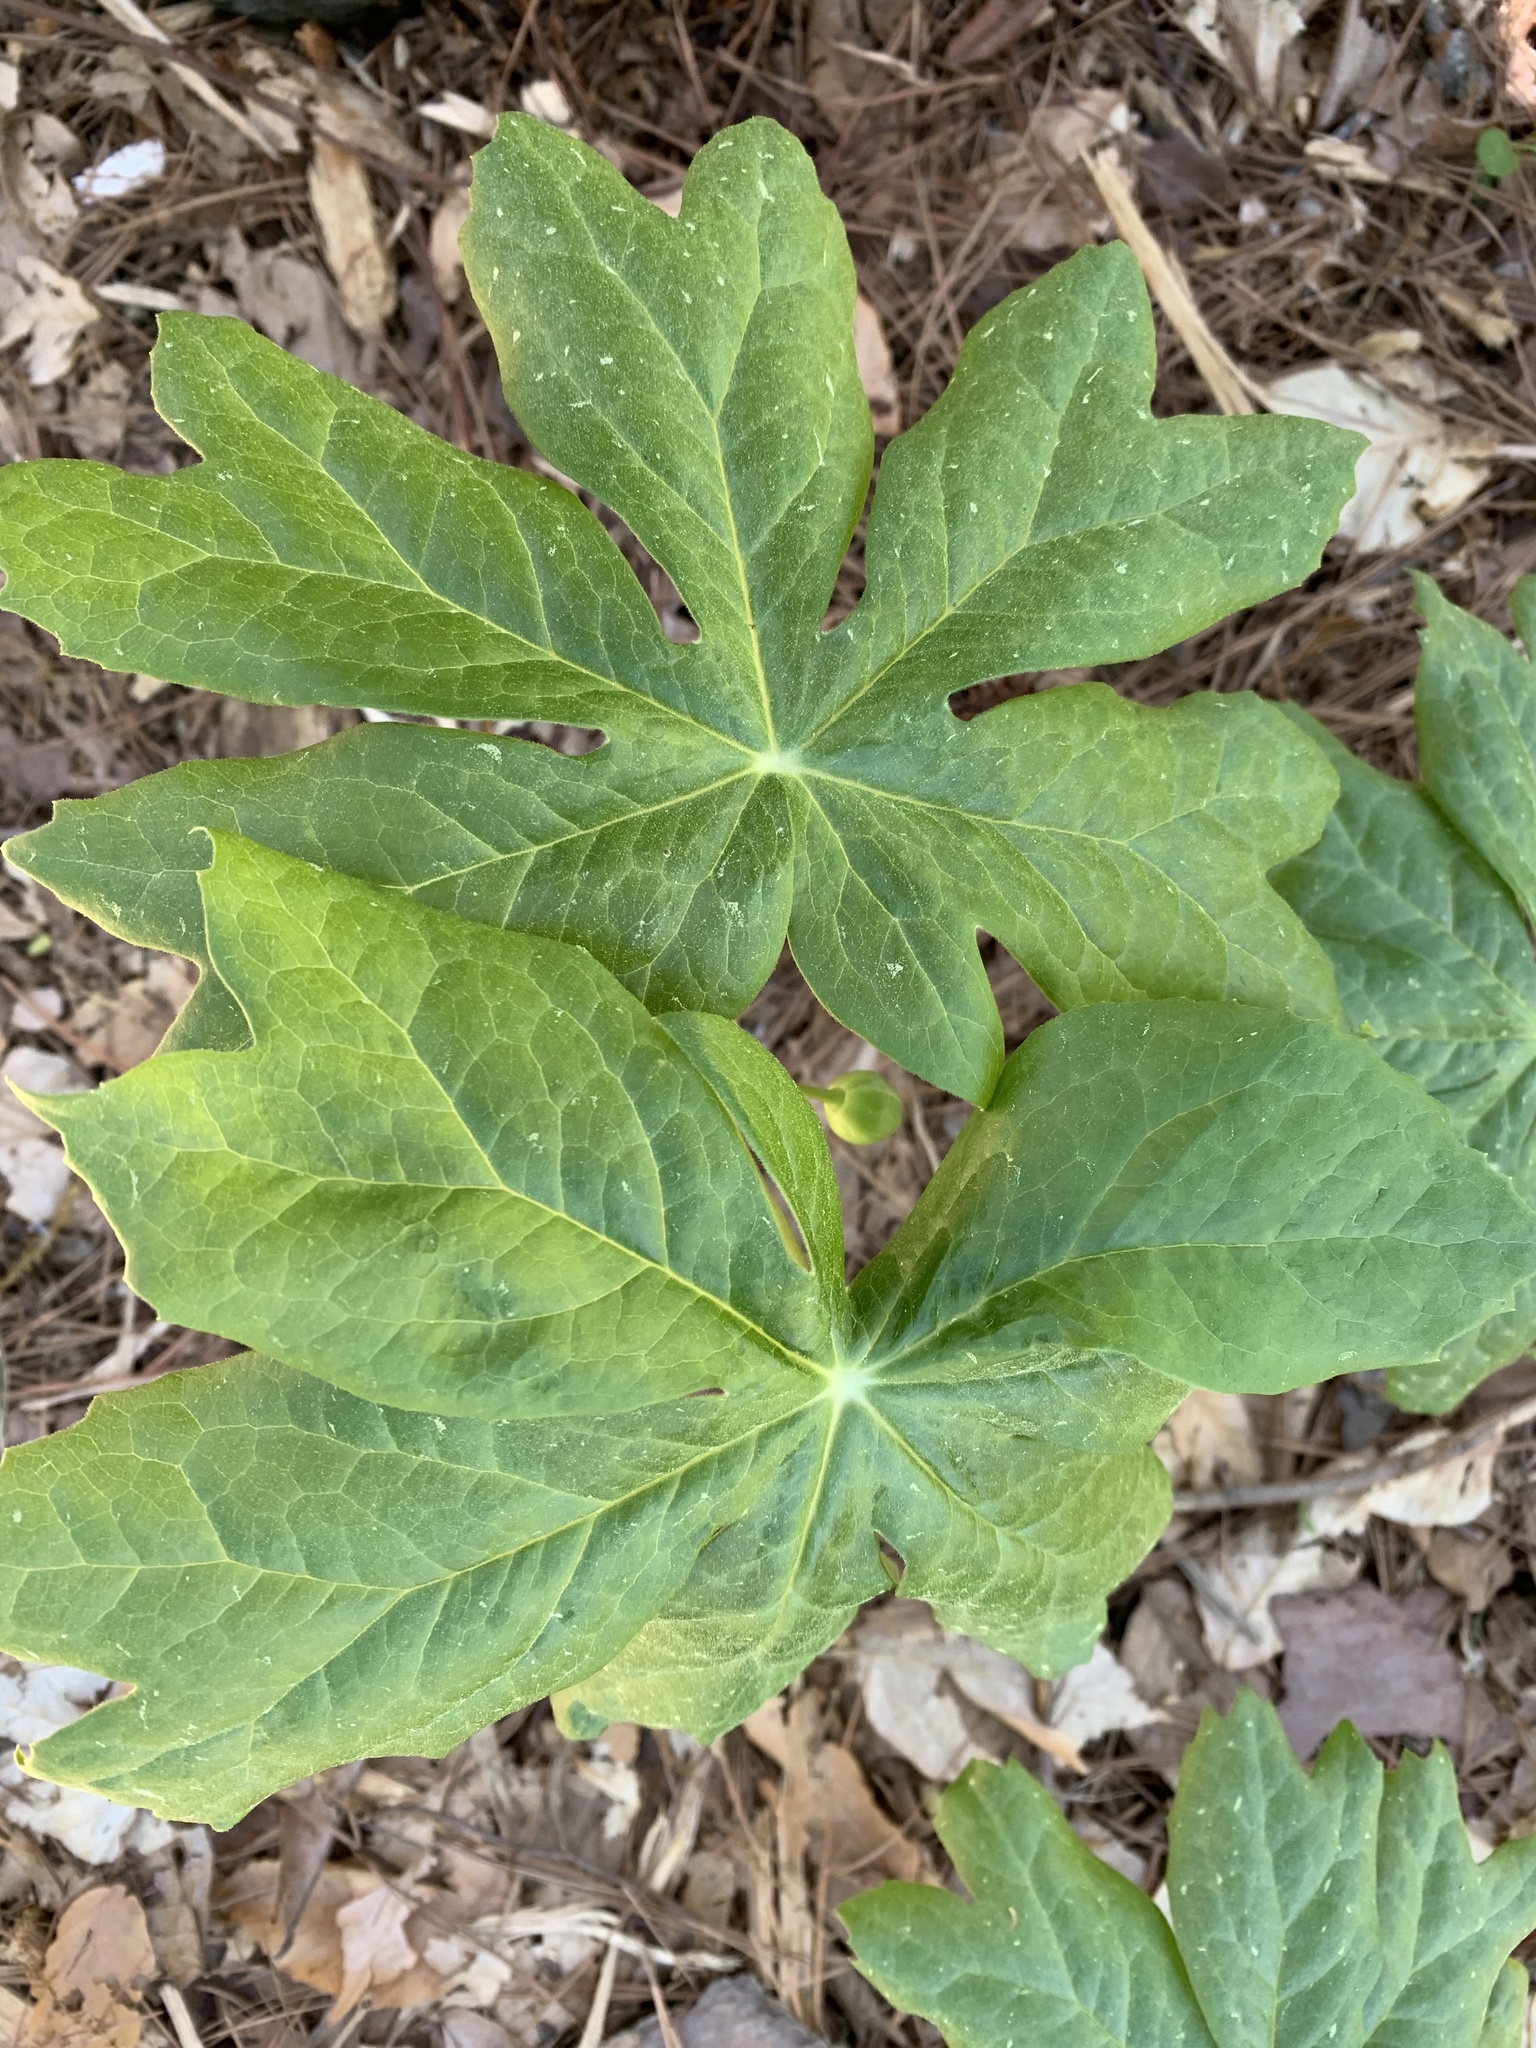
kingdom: Plantae
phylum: Tracheophyta
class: Magnoliopsida
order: Ranunculales
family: Berberidaceae
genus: Podophyllum
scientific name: Podophyllum peltatum
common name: Wild mandrake
